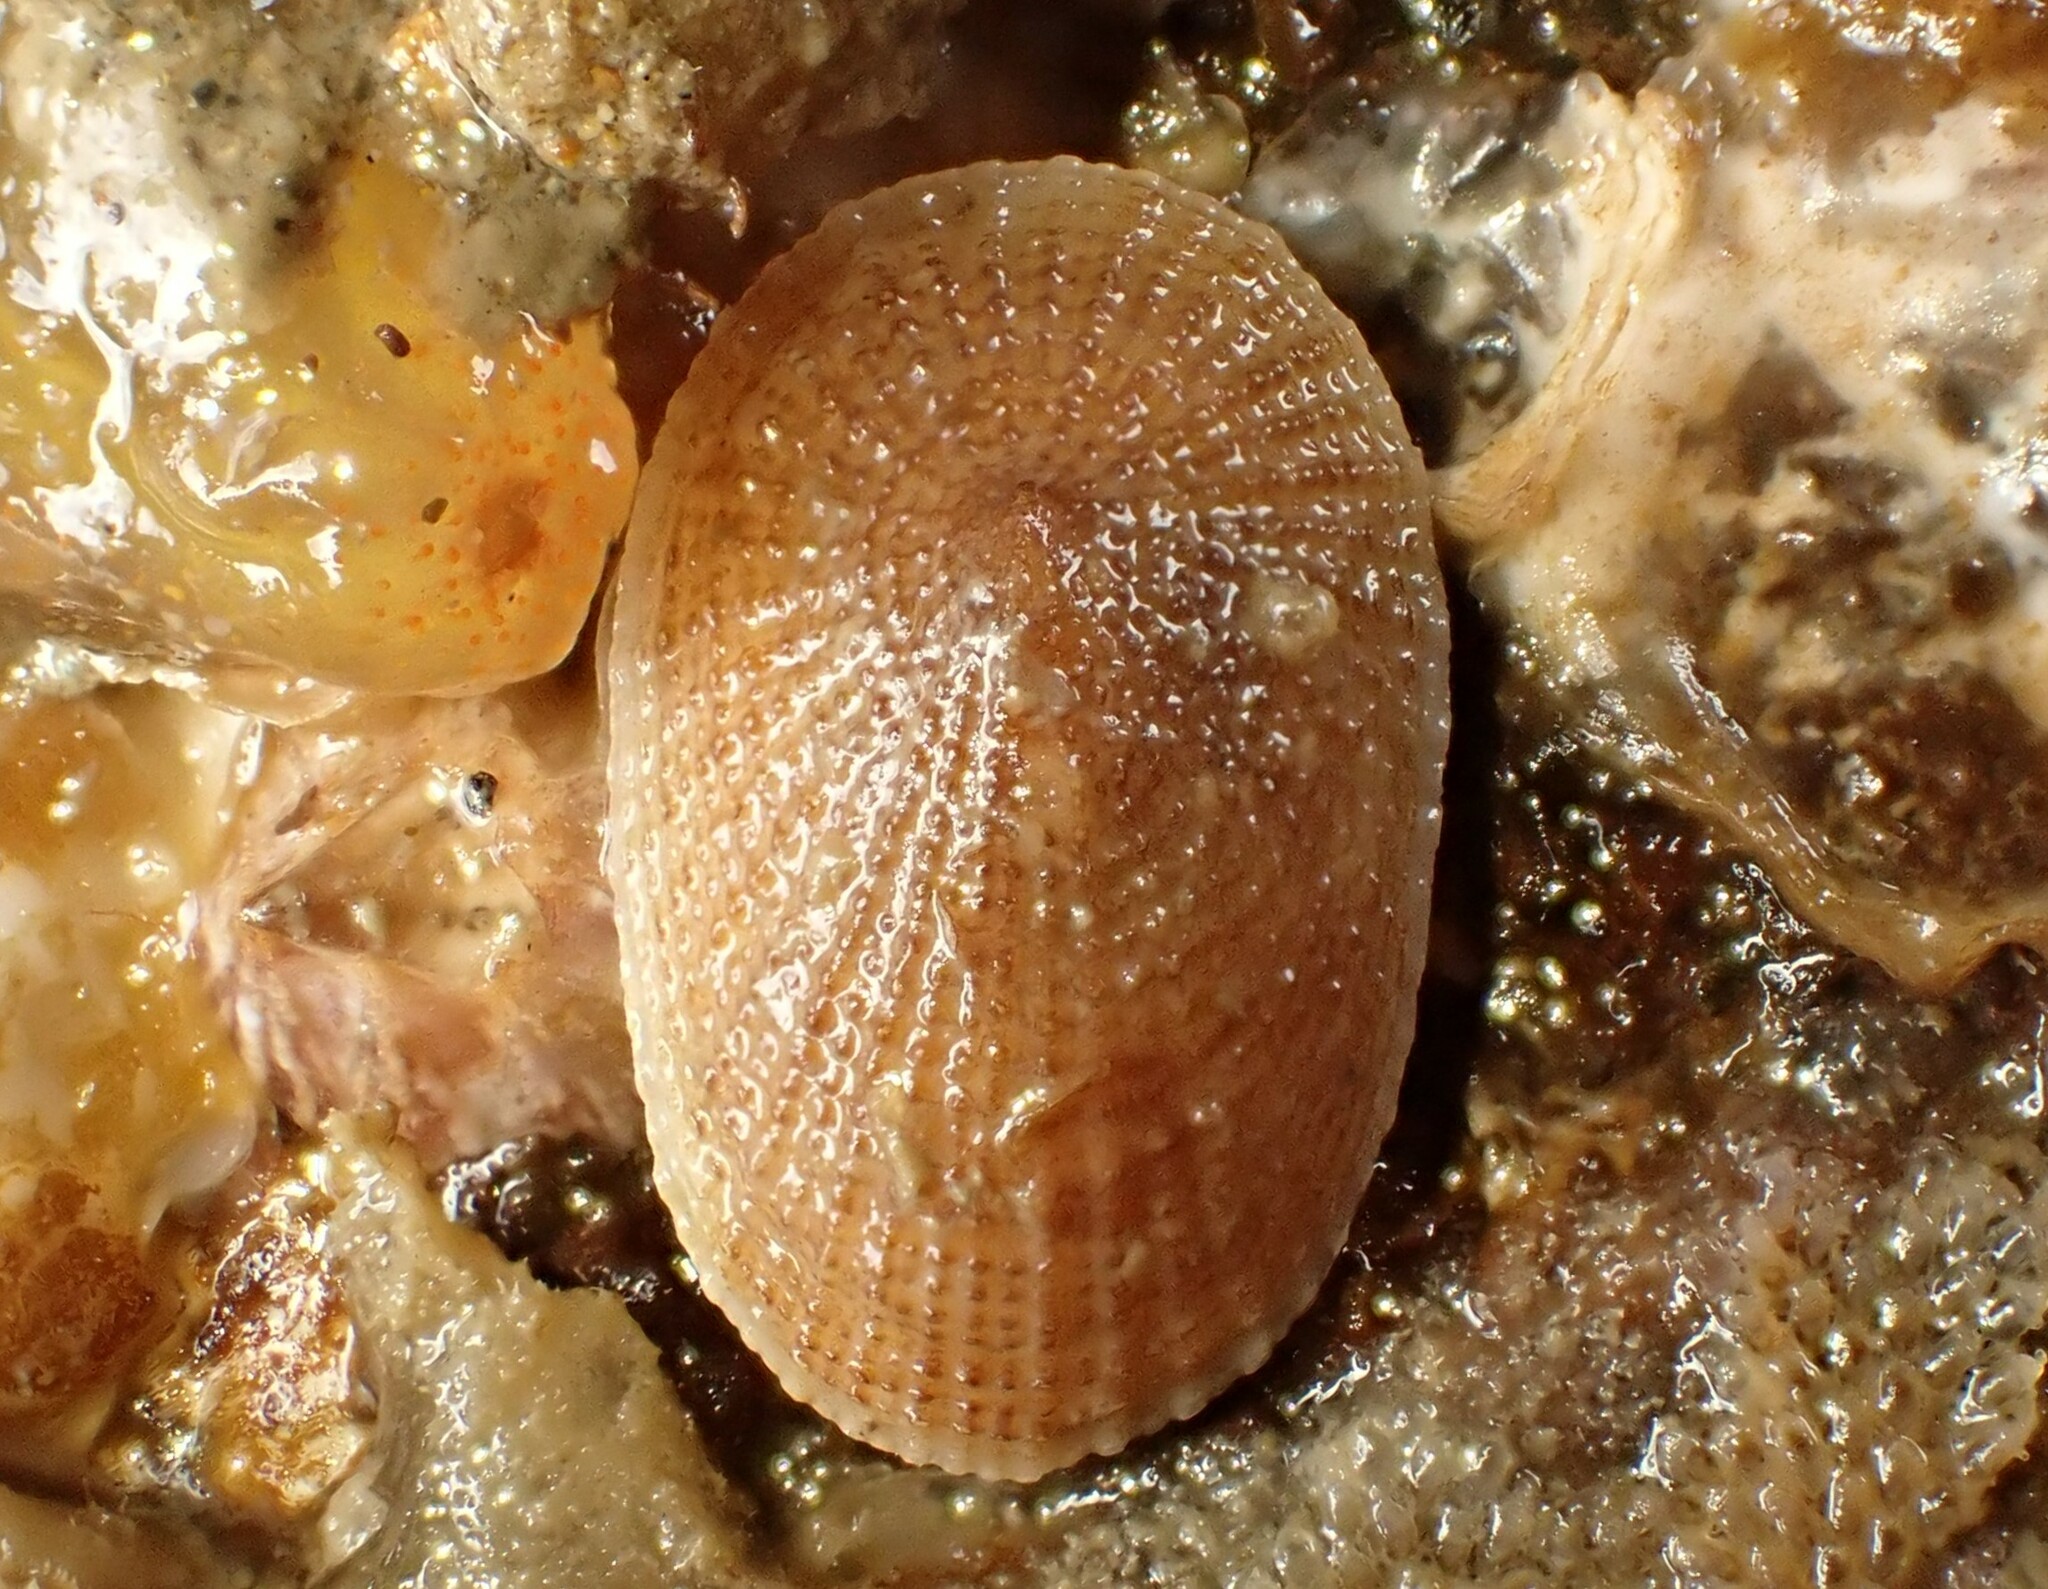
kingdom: Animalia
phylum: Mollusca
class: Gastropoda
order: Lepetellida
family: Fissurellidae
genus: Tugali
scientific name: Tugali suteri
